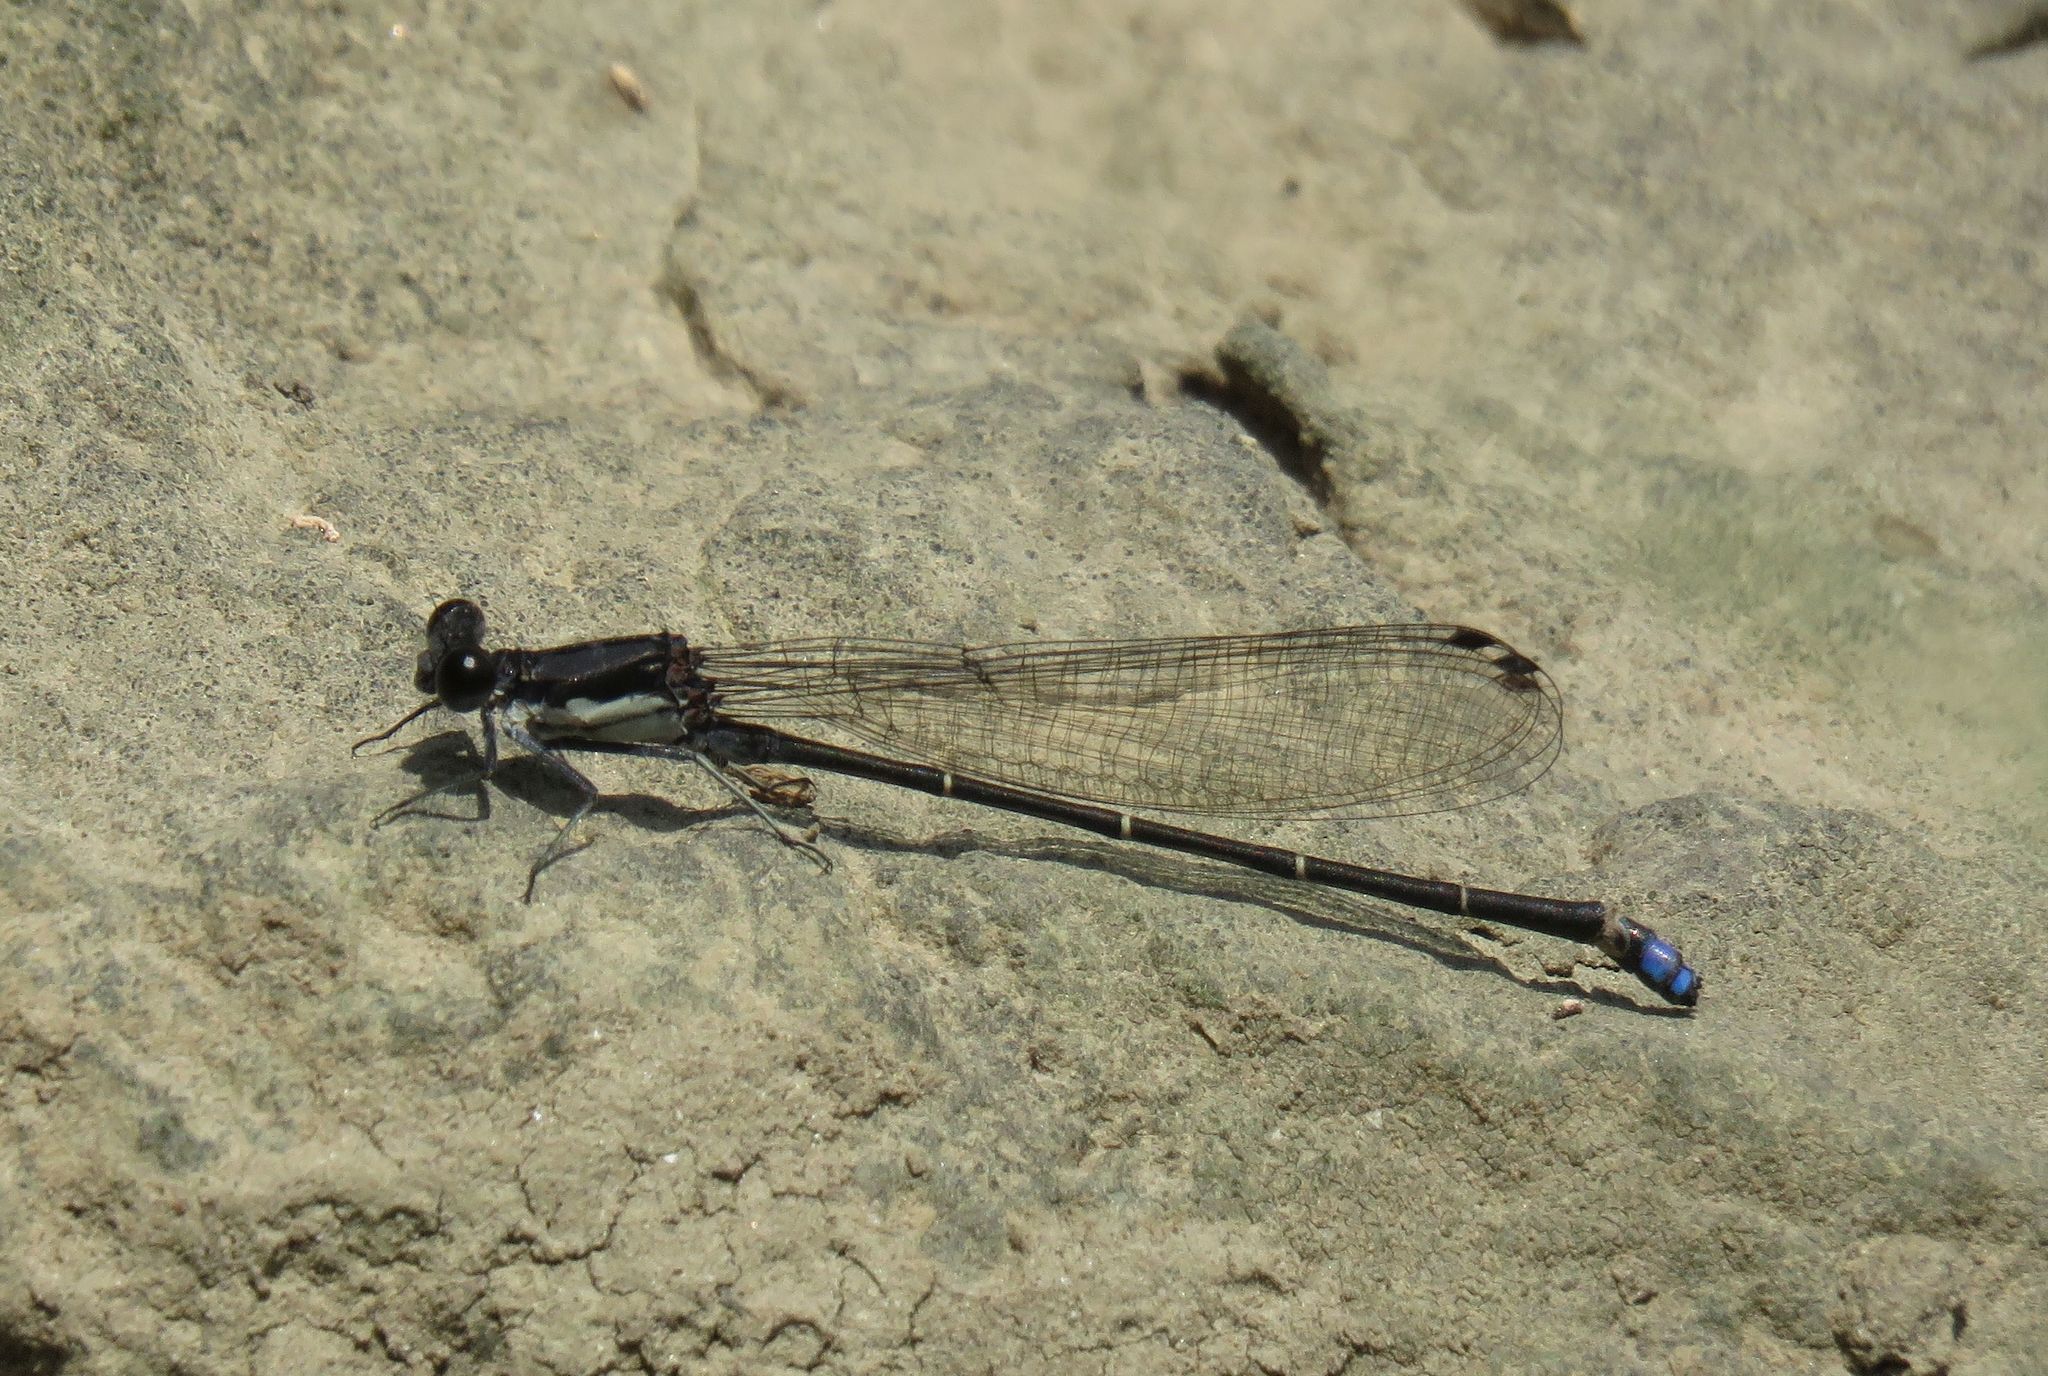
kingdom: Animalia
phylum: Arthropoda
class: Insecta
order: Odonata
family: Coenagrionidae
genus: Argia
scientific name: Argia tibialis
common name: Blue-tipped dancer
